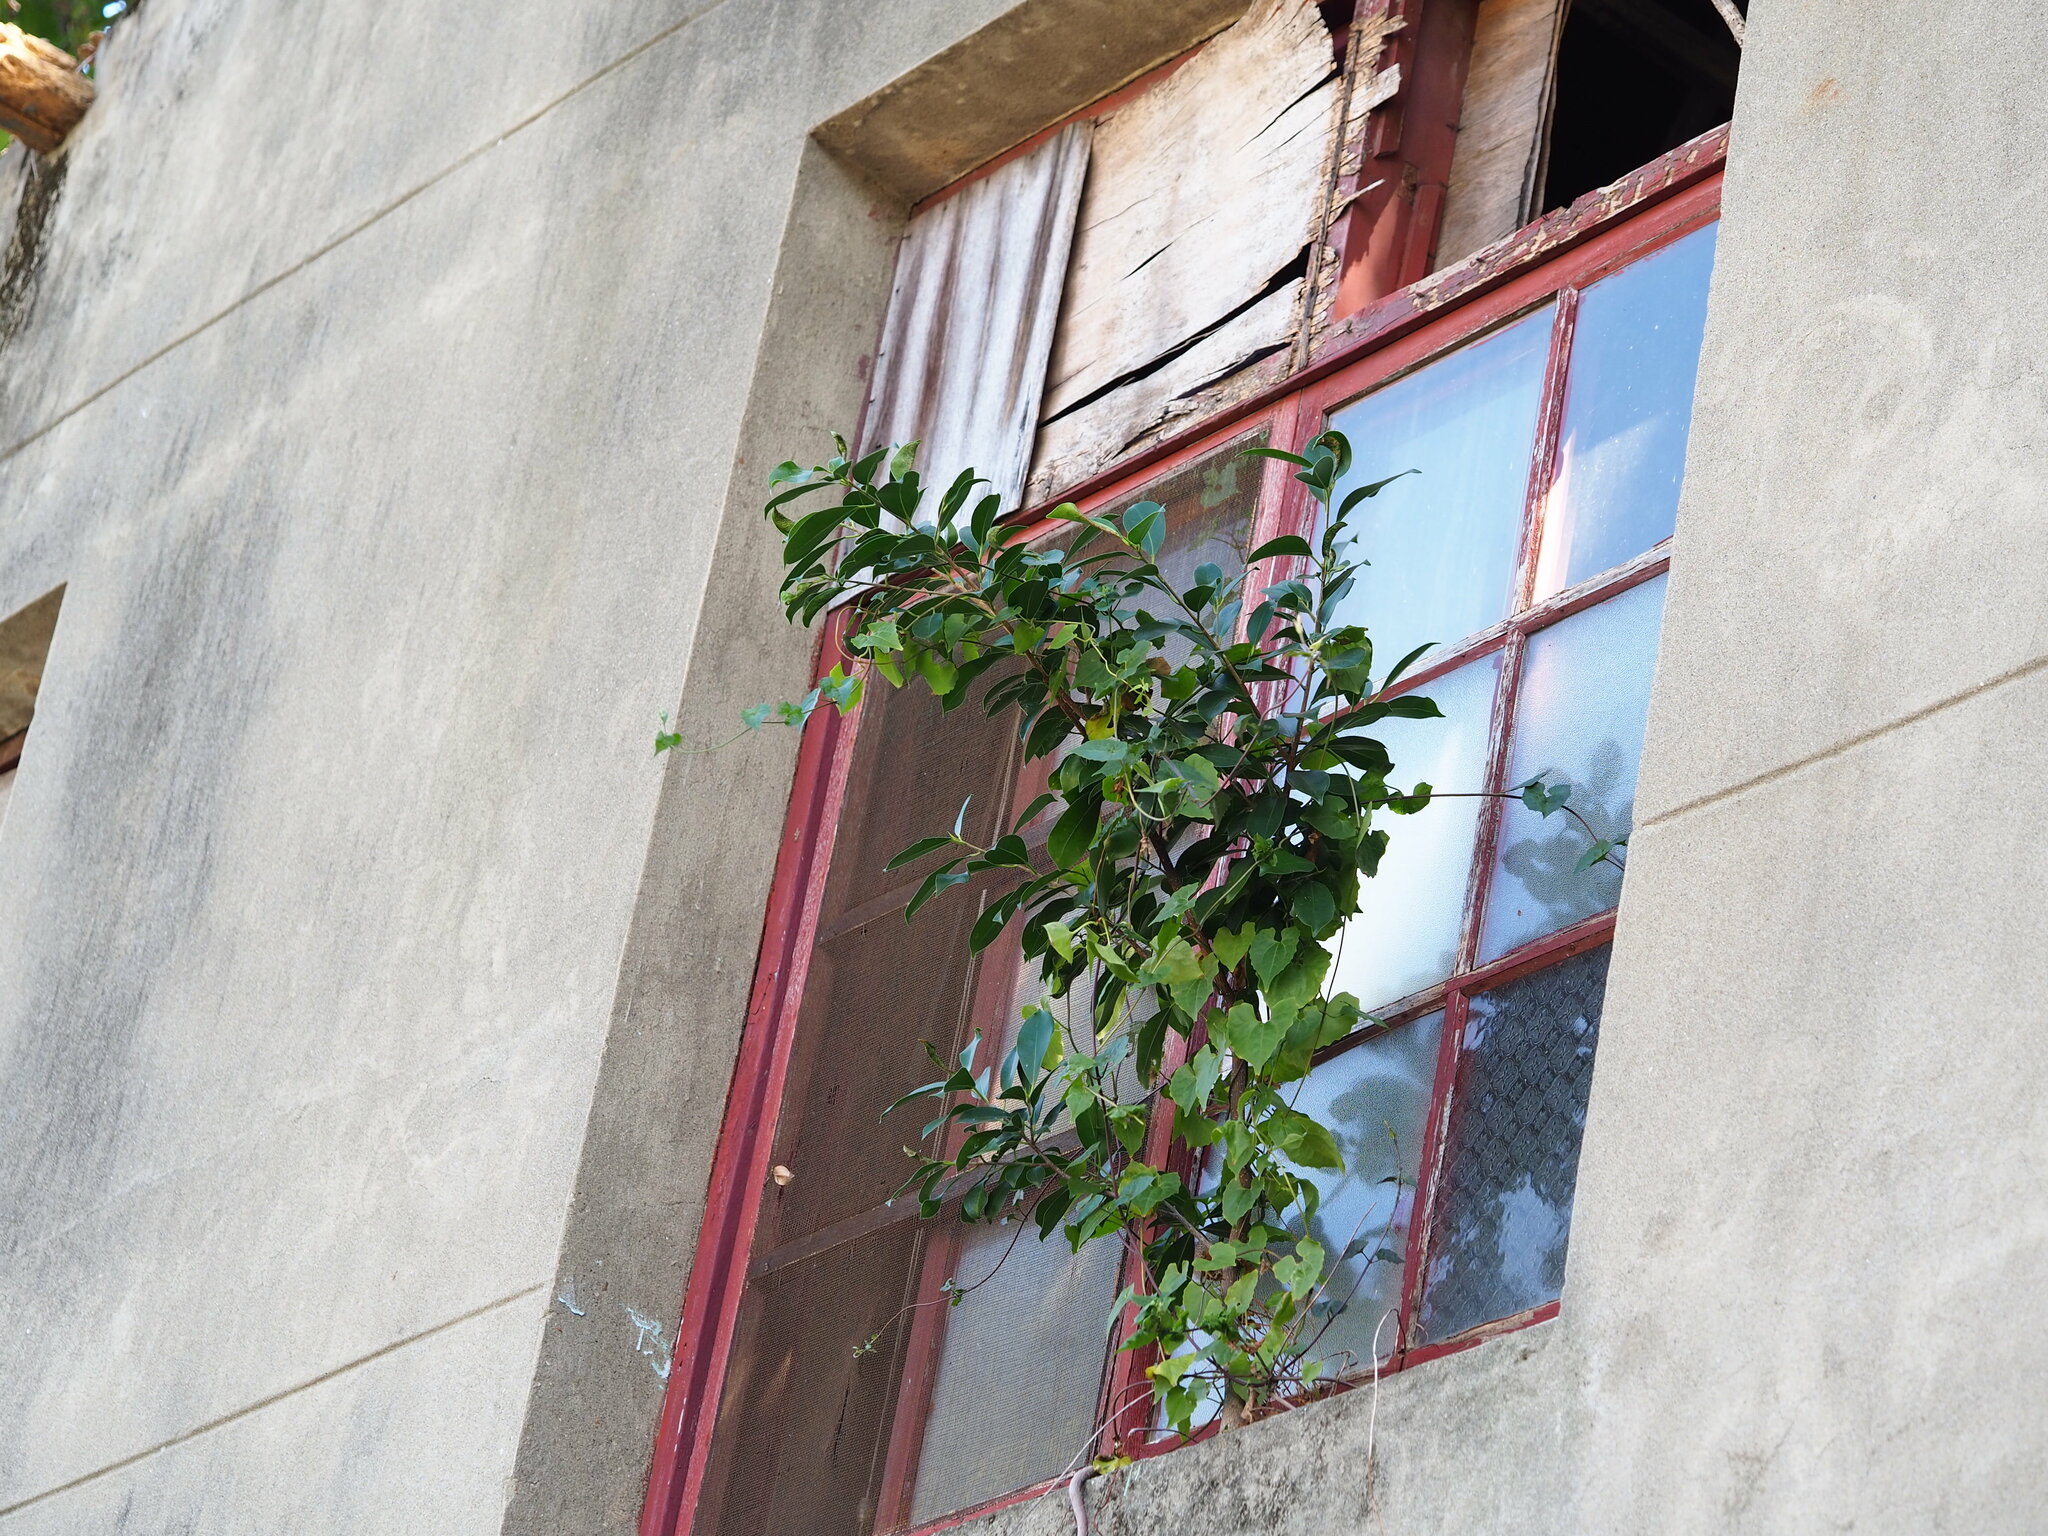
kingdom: Plantae
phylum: Tracheophyta
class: Magnoliopsida
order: Rosales
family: Moraceae
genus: Ficus
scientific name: Ficus microcarpa
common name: Chinese banyan
